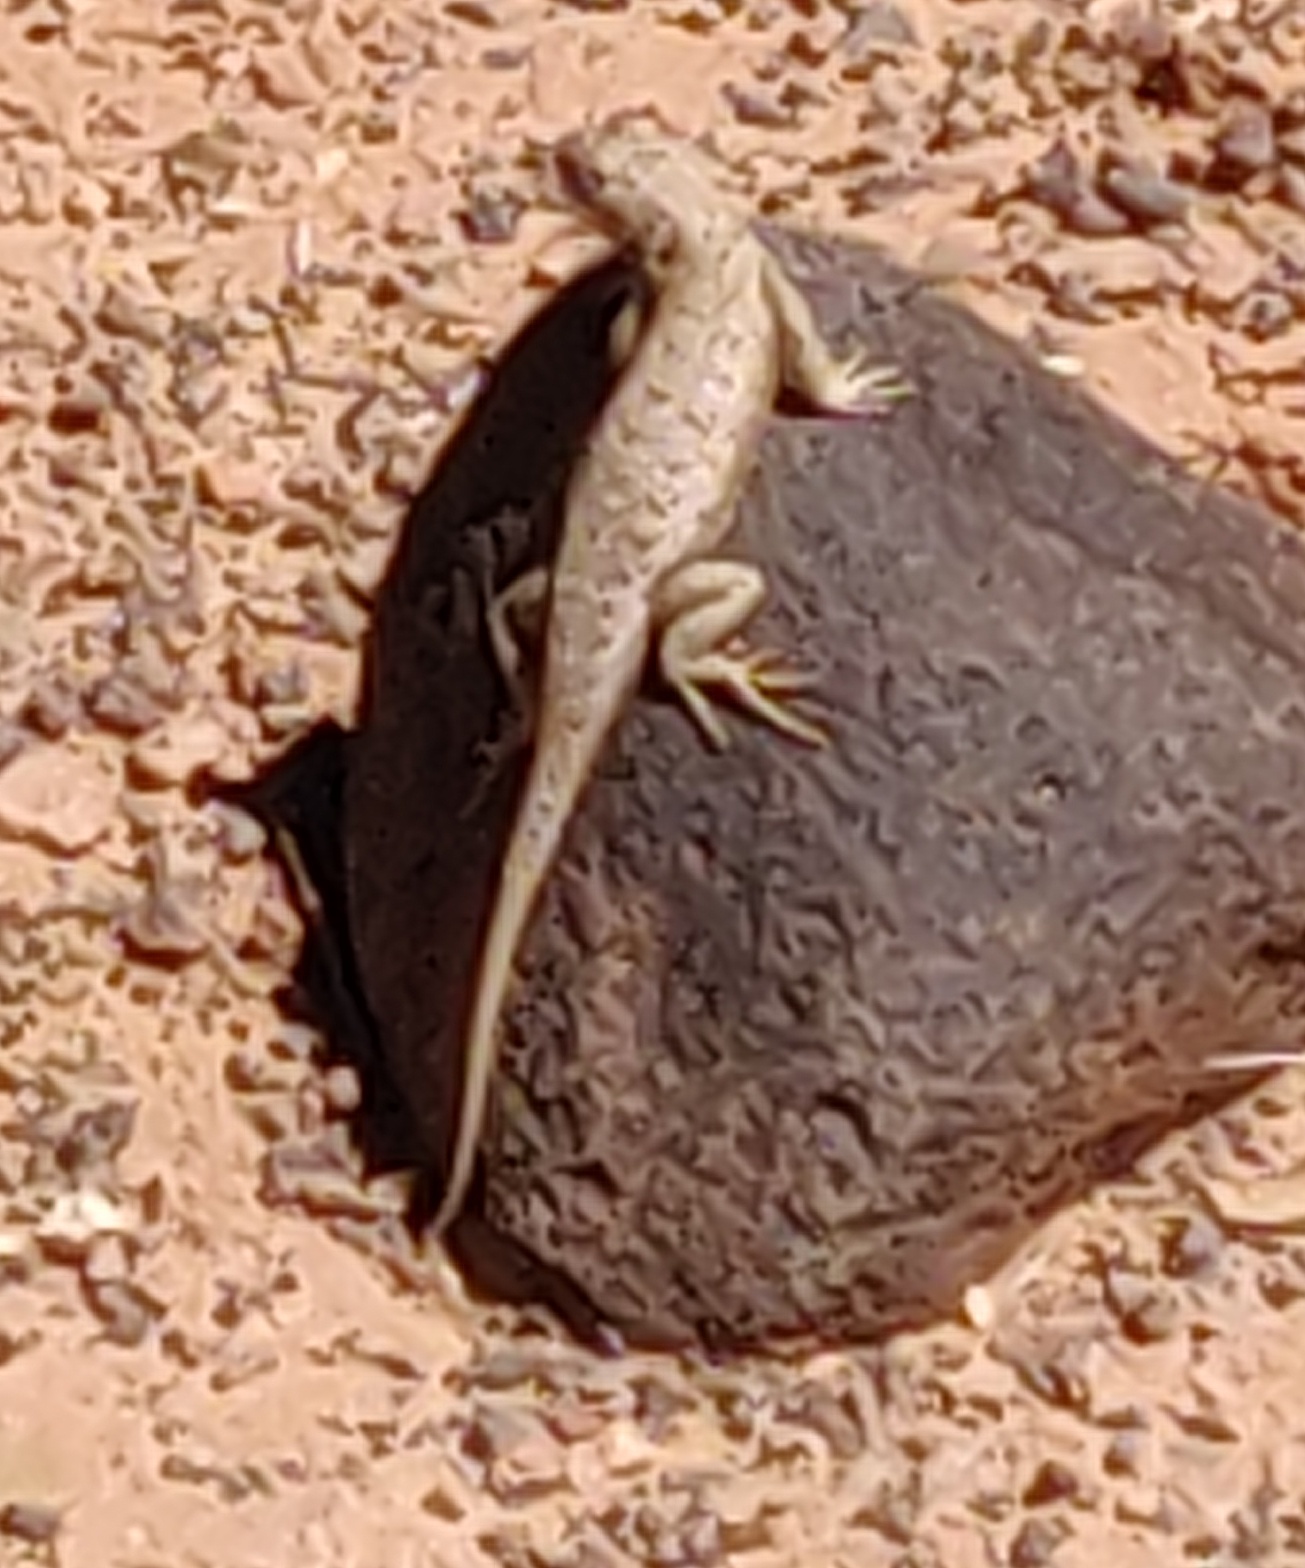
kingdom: Animalia
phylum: Chordata
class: Squamata
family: Phrynosomatidae
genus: Sceloporus
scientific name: Sceloporus tristichus
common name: Plateau fence lizard
